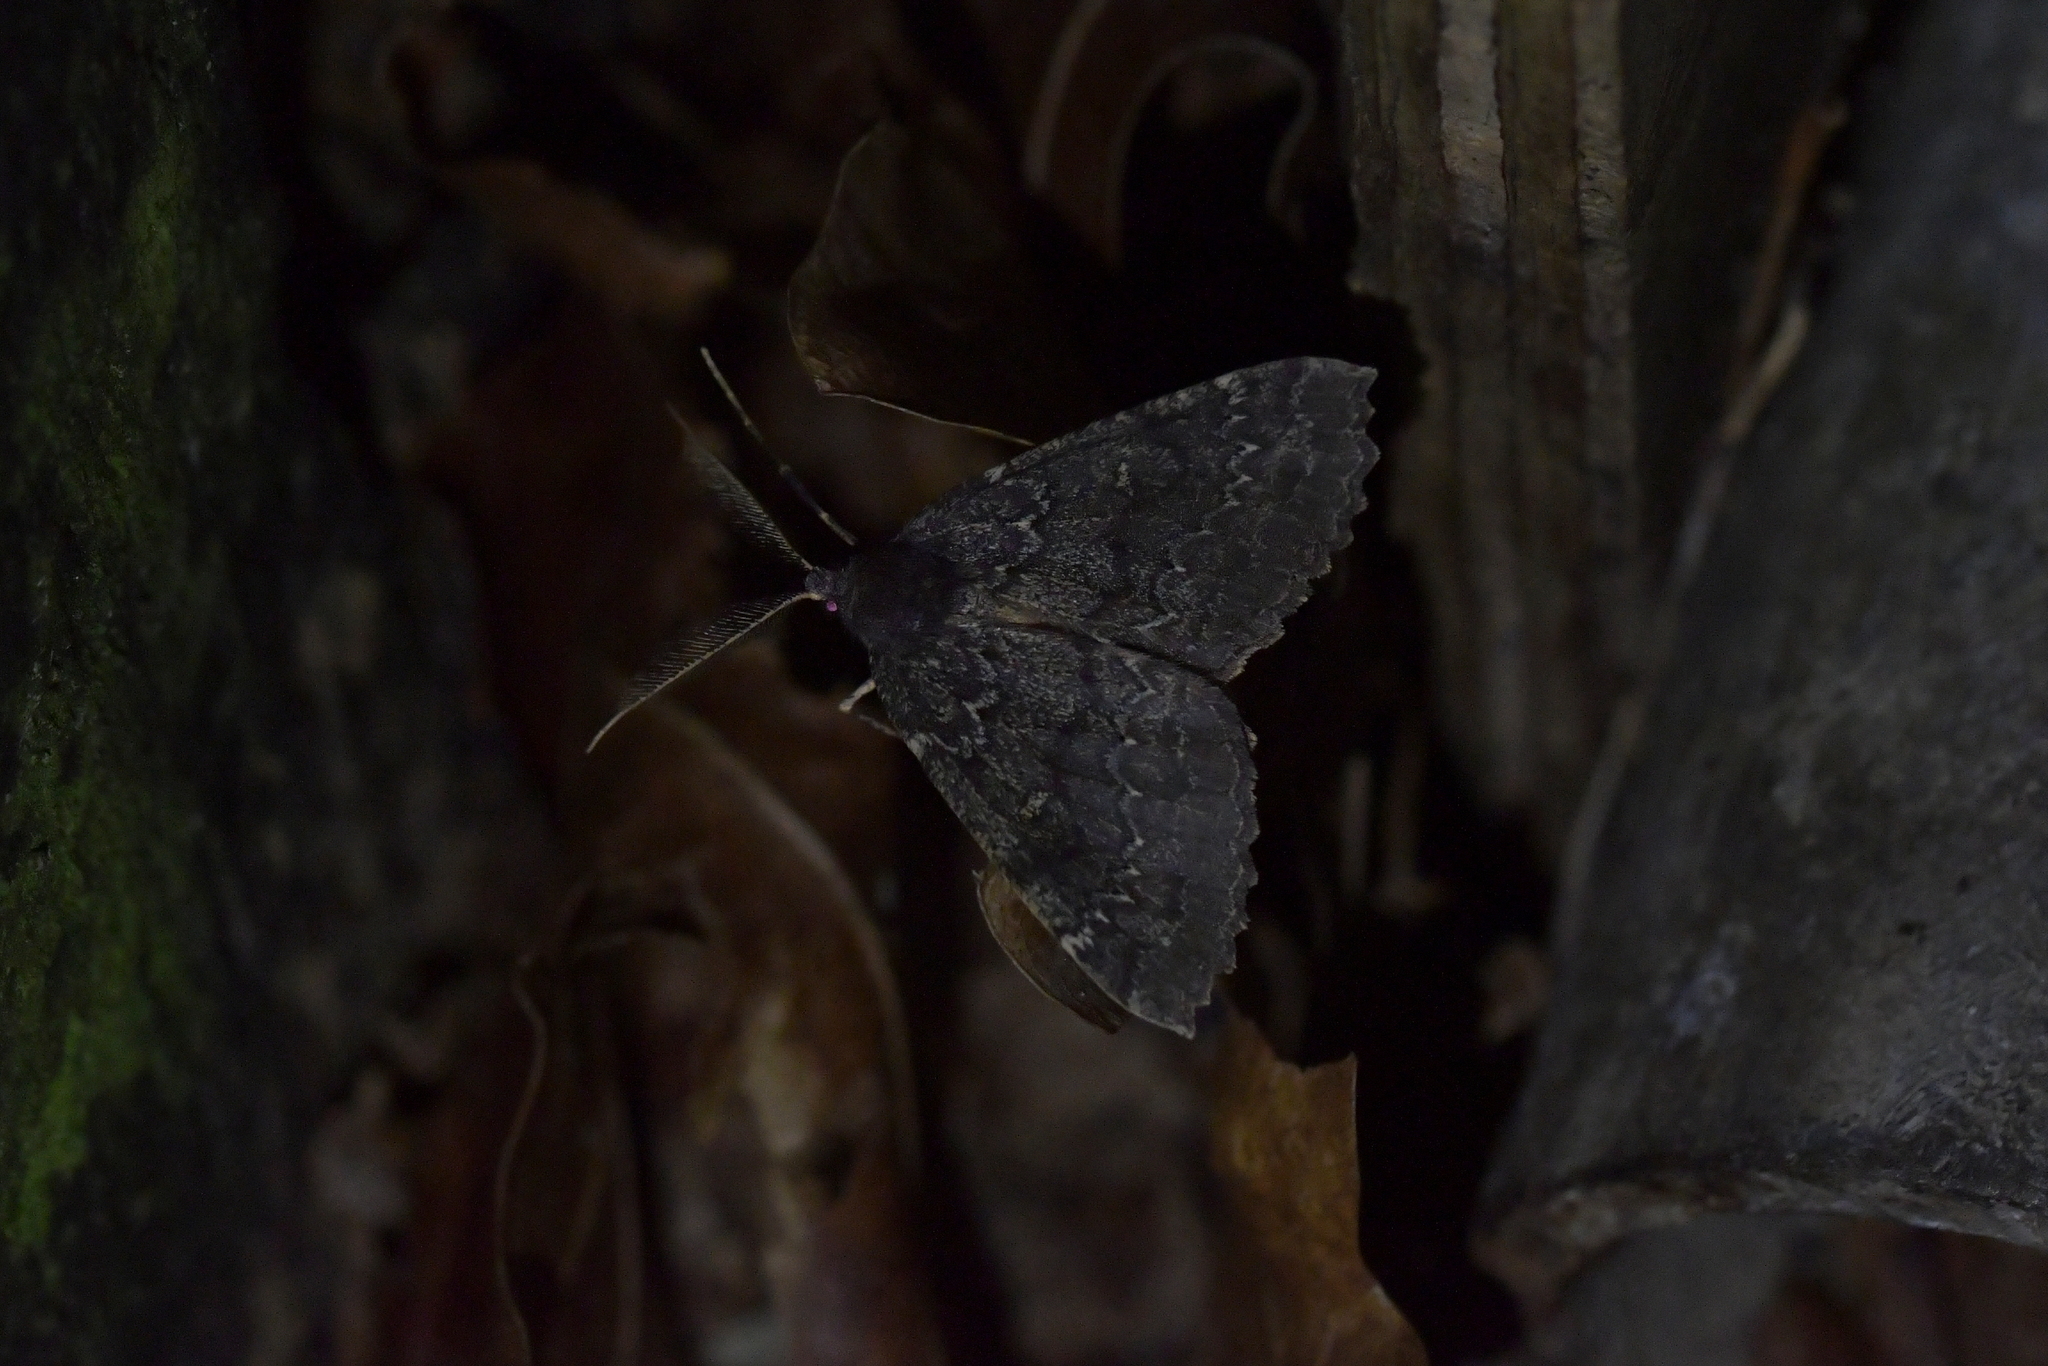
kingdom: Animalia
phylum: Arthropoda
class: Insecta
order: Lepidoptera
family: Geometridae
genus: Cleora
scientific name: Cleora scriptaria
